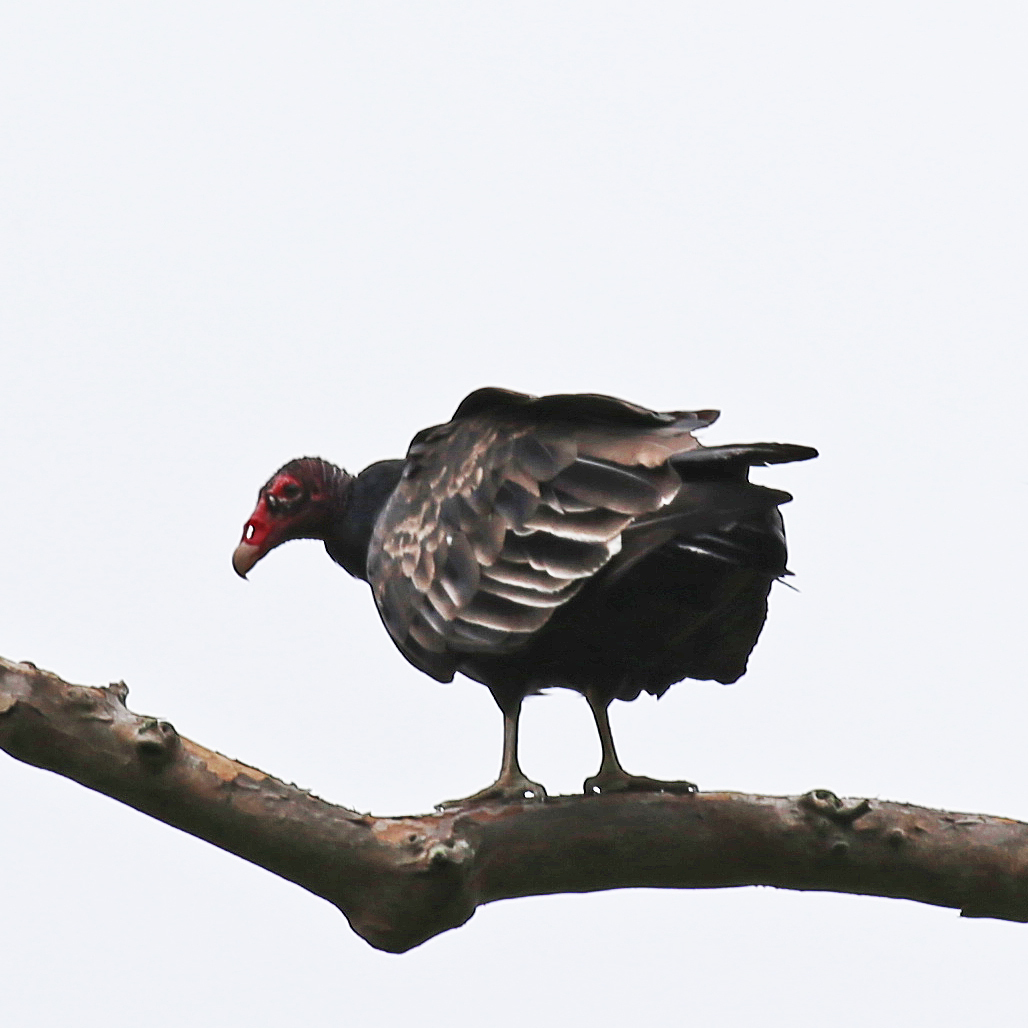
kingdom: Animalia
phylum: Chordata
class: Aves
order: Accipitriformes
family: Cathartidae
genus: Cathartes
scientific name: Cathartes aura
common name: Turkey vulture
